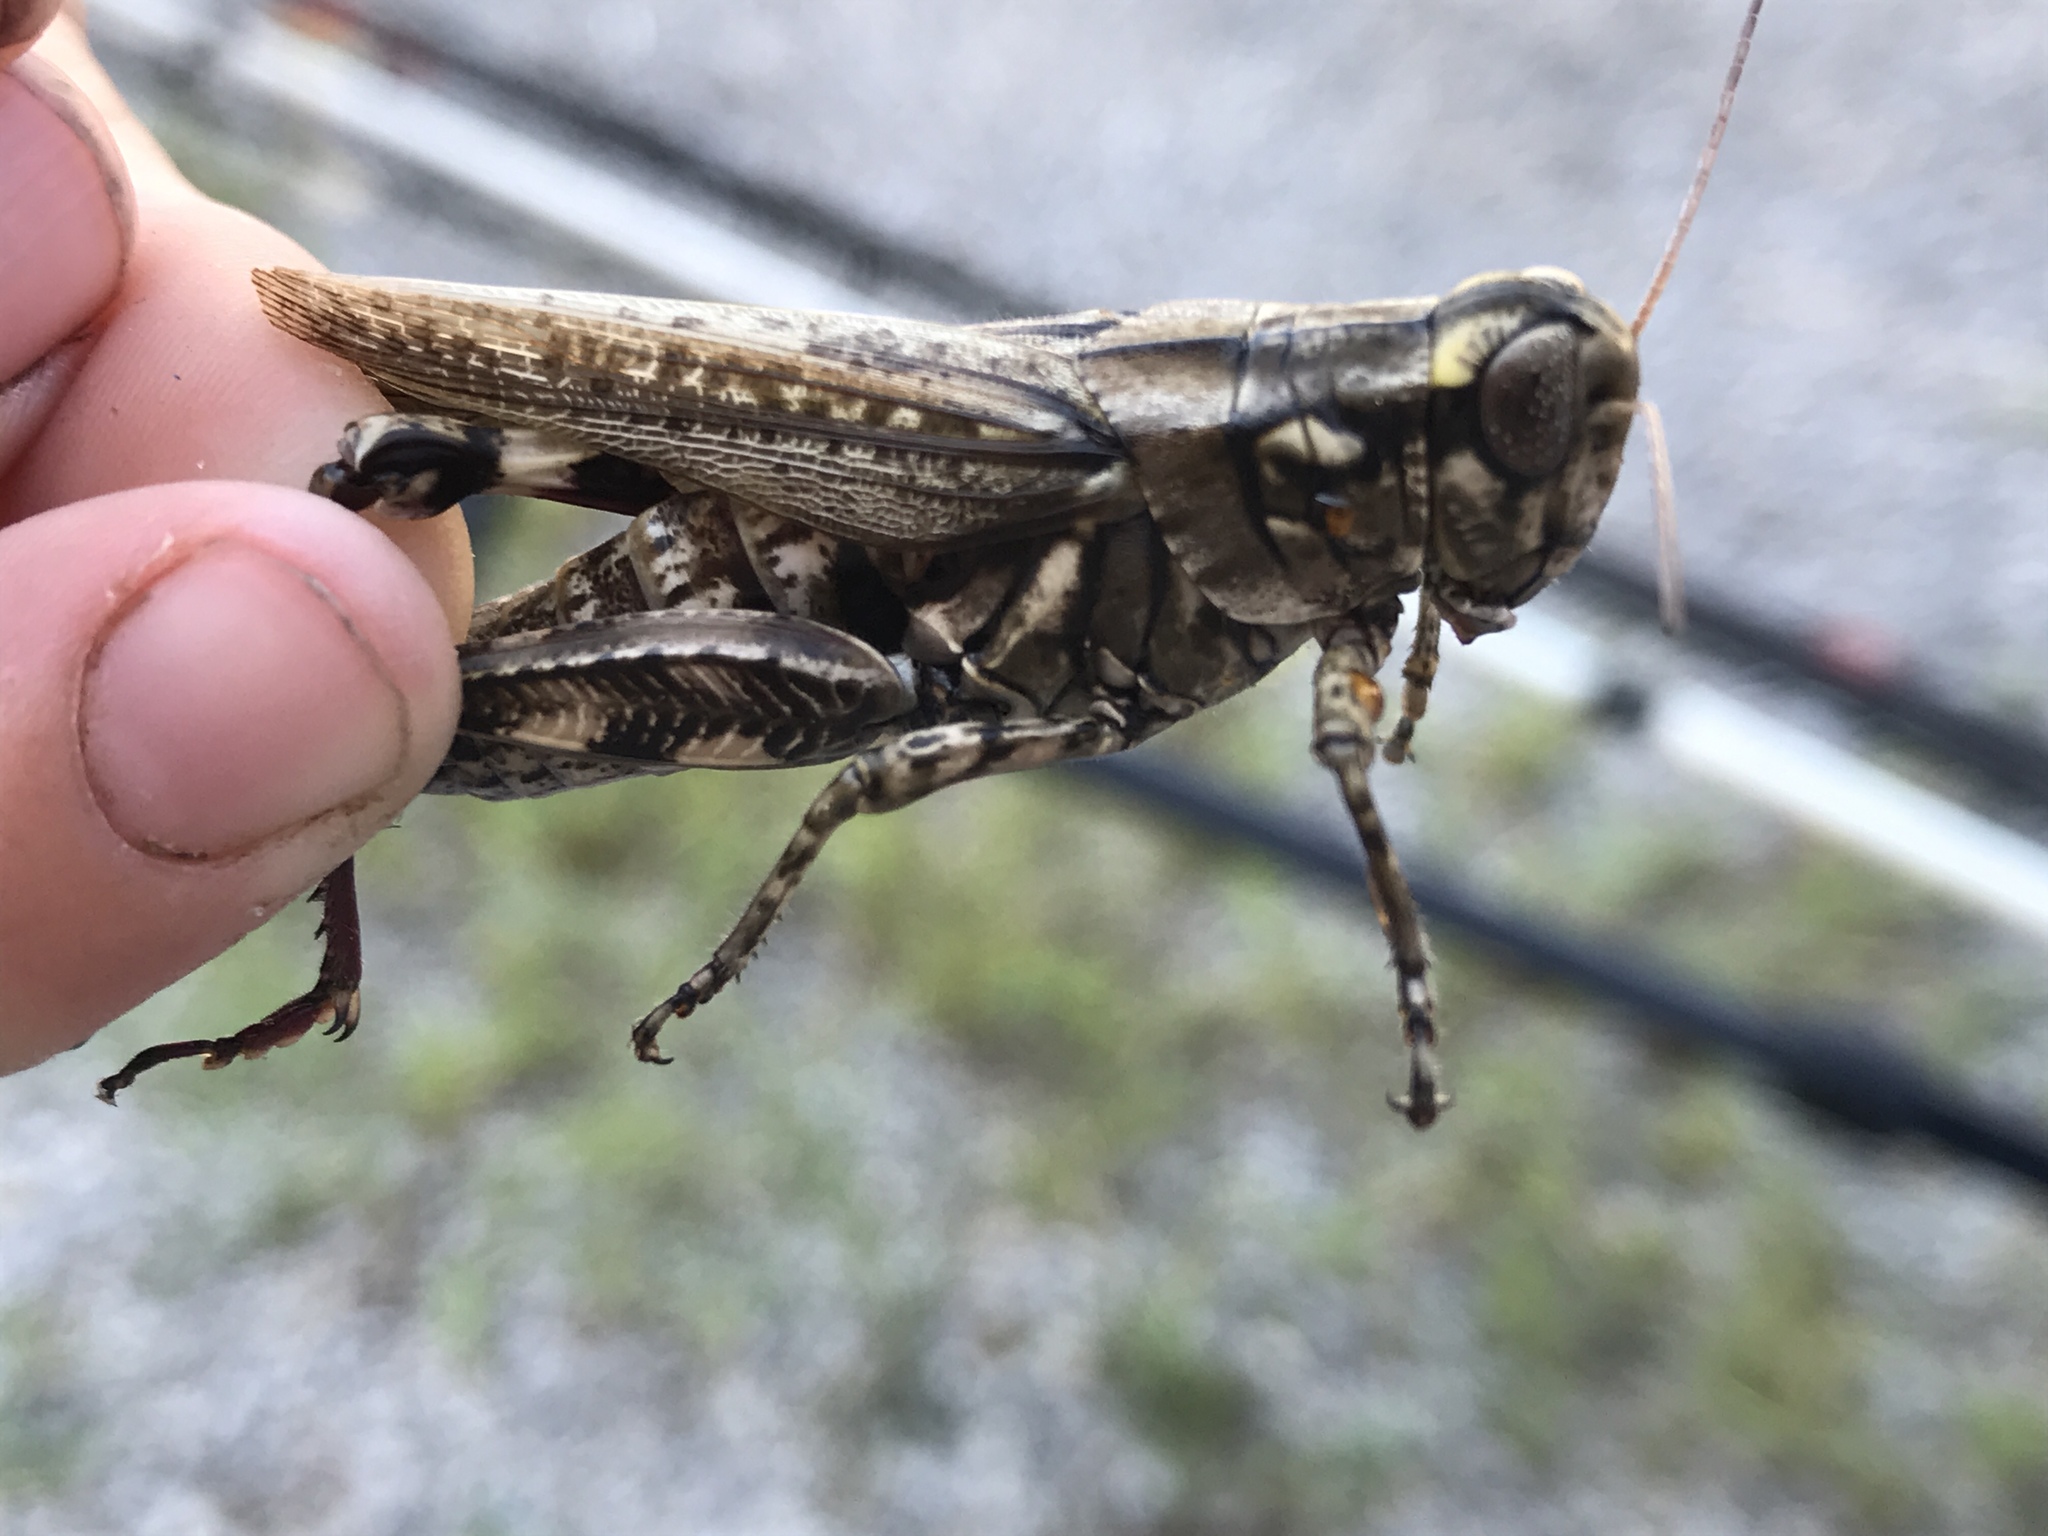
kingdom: Animalia
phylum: Arthropoda
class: Insecta
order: Orthoptera
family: Acrididae
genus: Melanoplus
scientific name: Melanoplus macclungi
